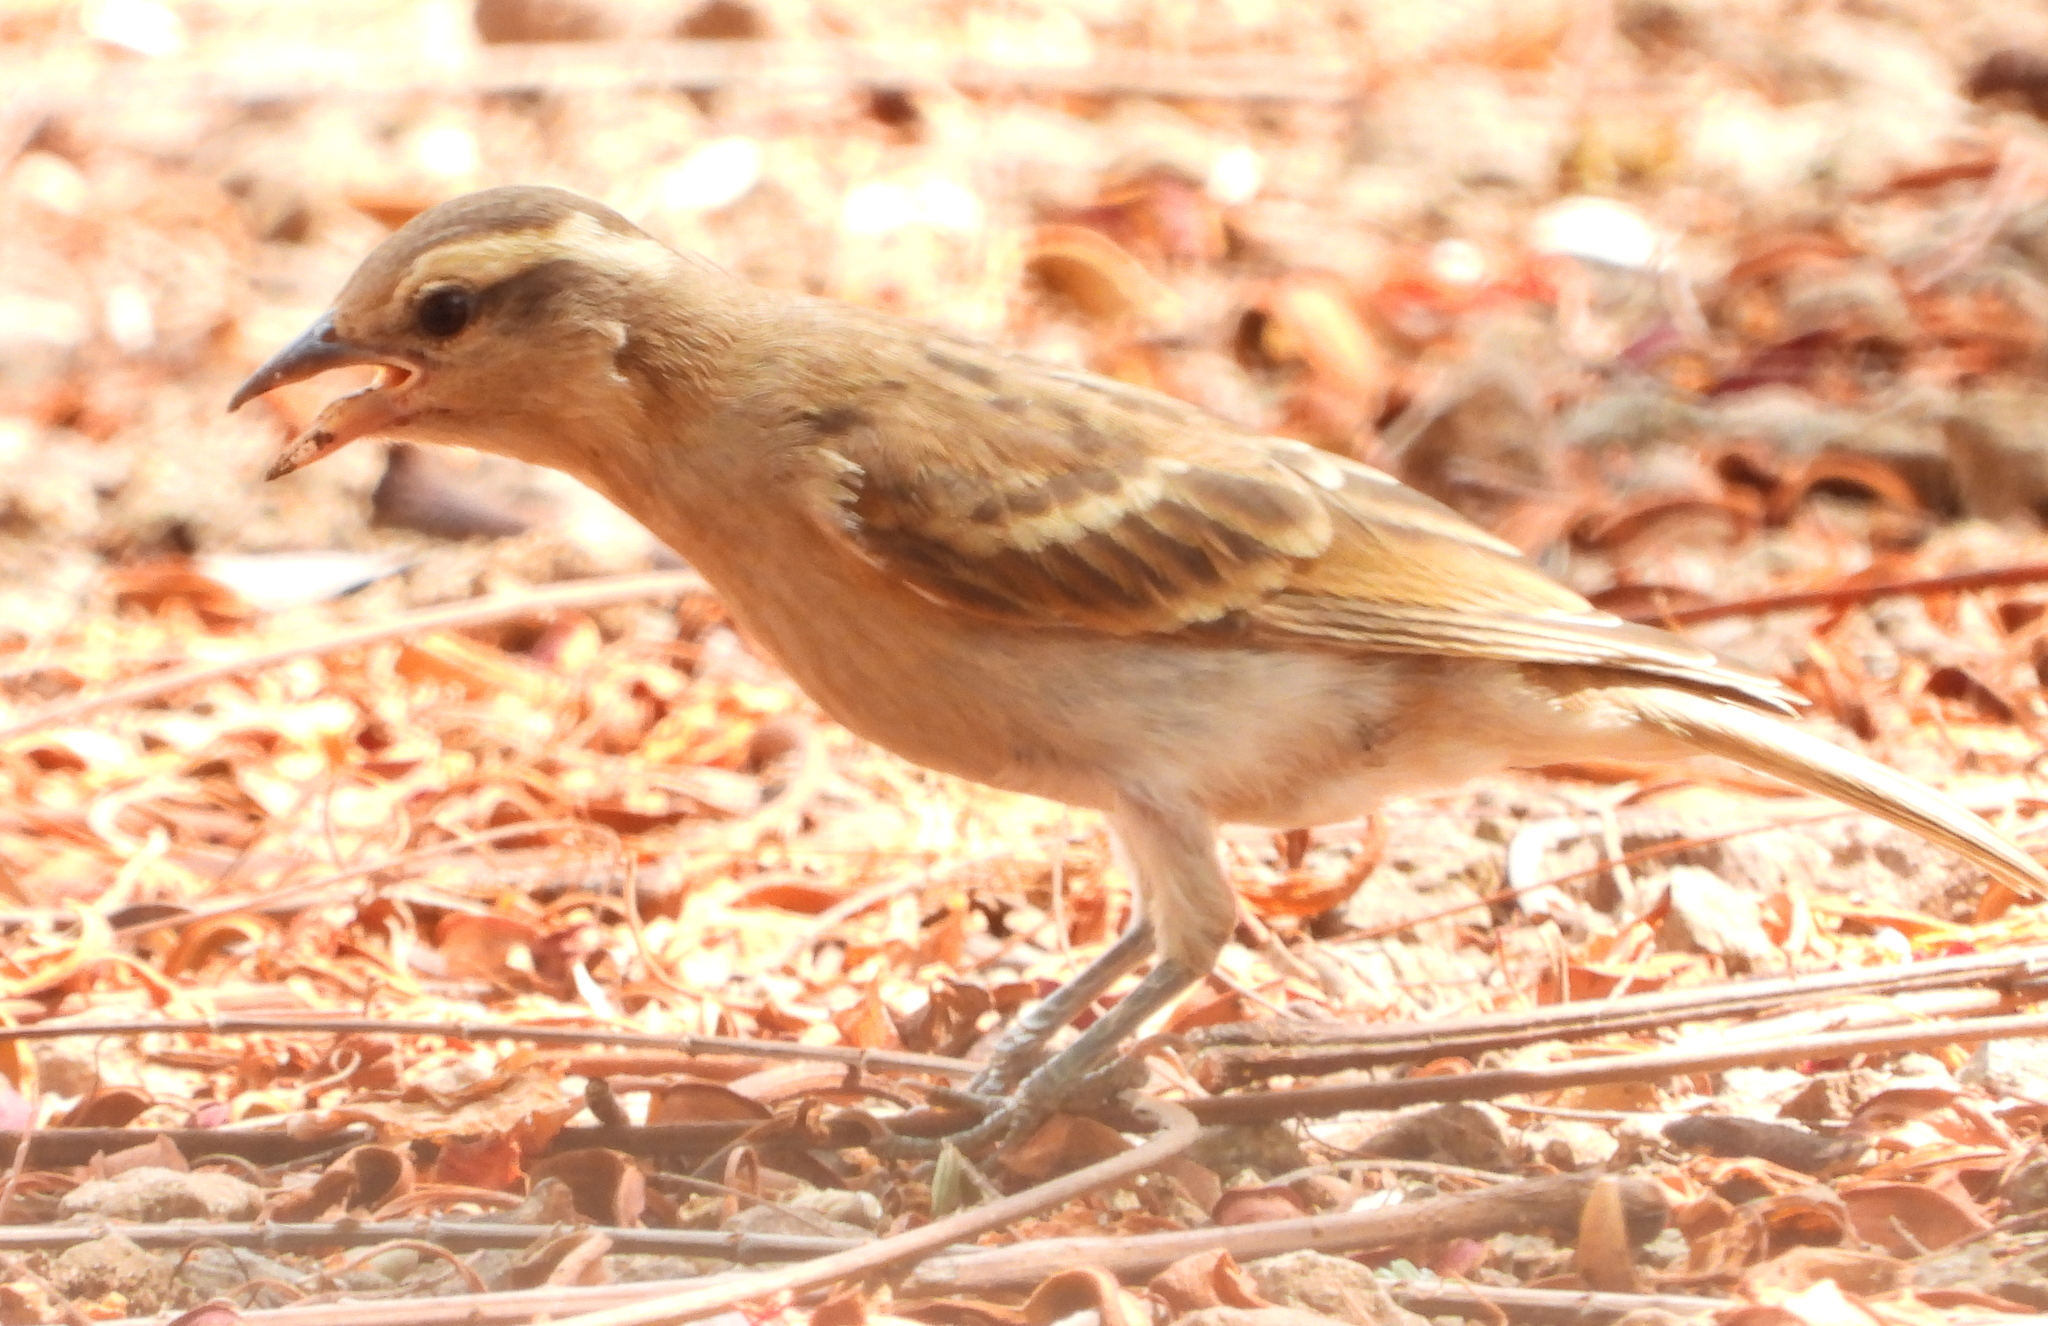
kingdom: Animalia
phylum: Chordata
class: Aves
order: Passeriformes
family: Passeridae
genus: Gymnoris
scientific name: Gymnoris superciliaris
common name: Yellow-throated petronia
